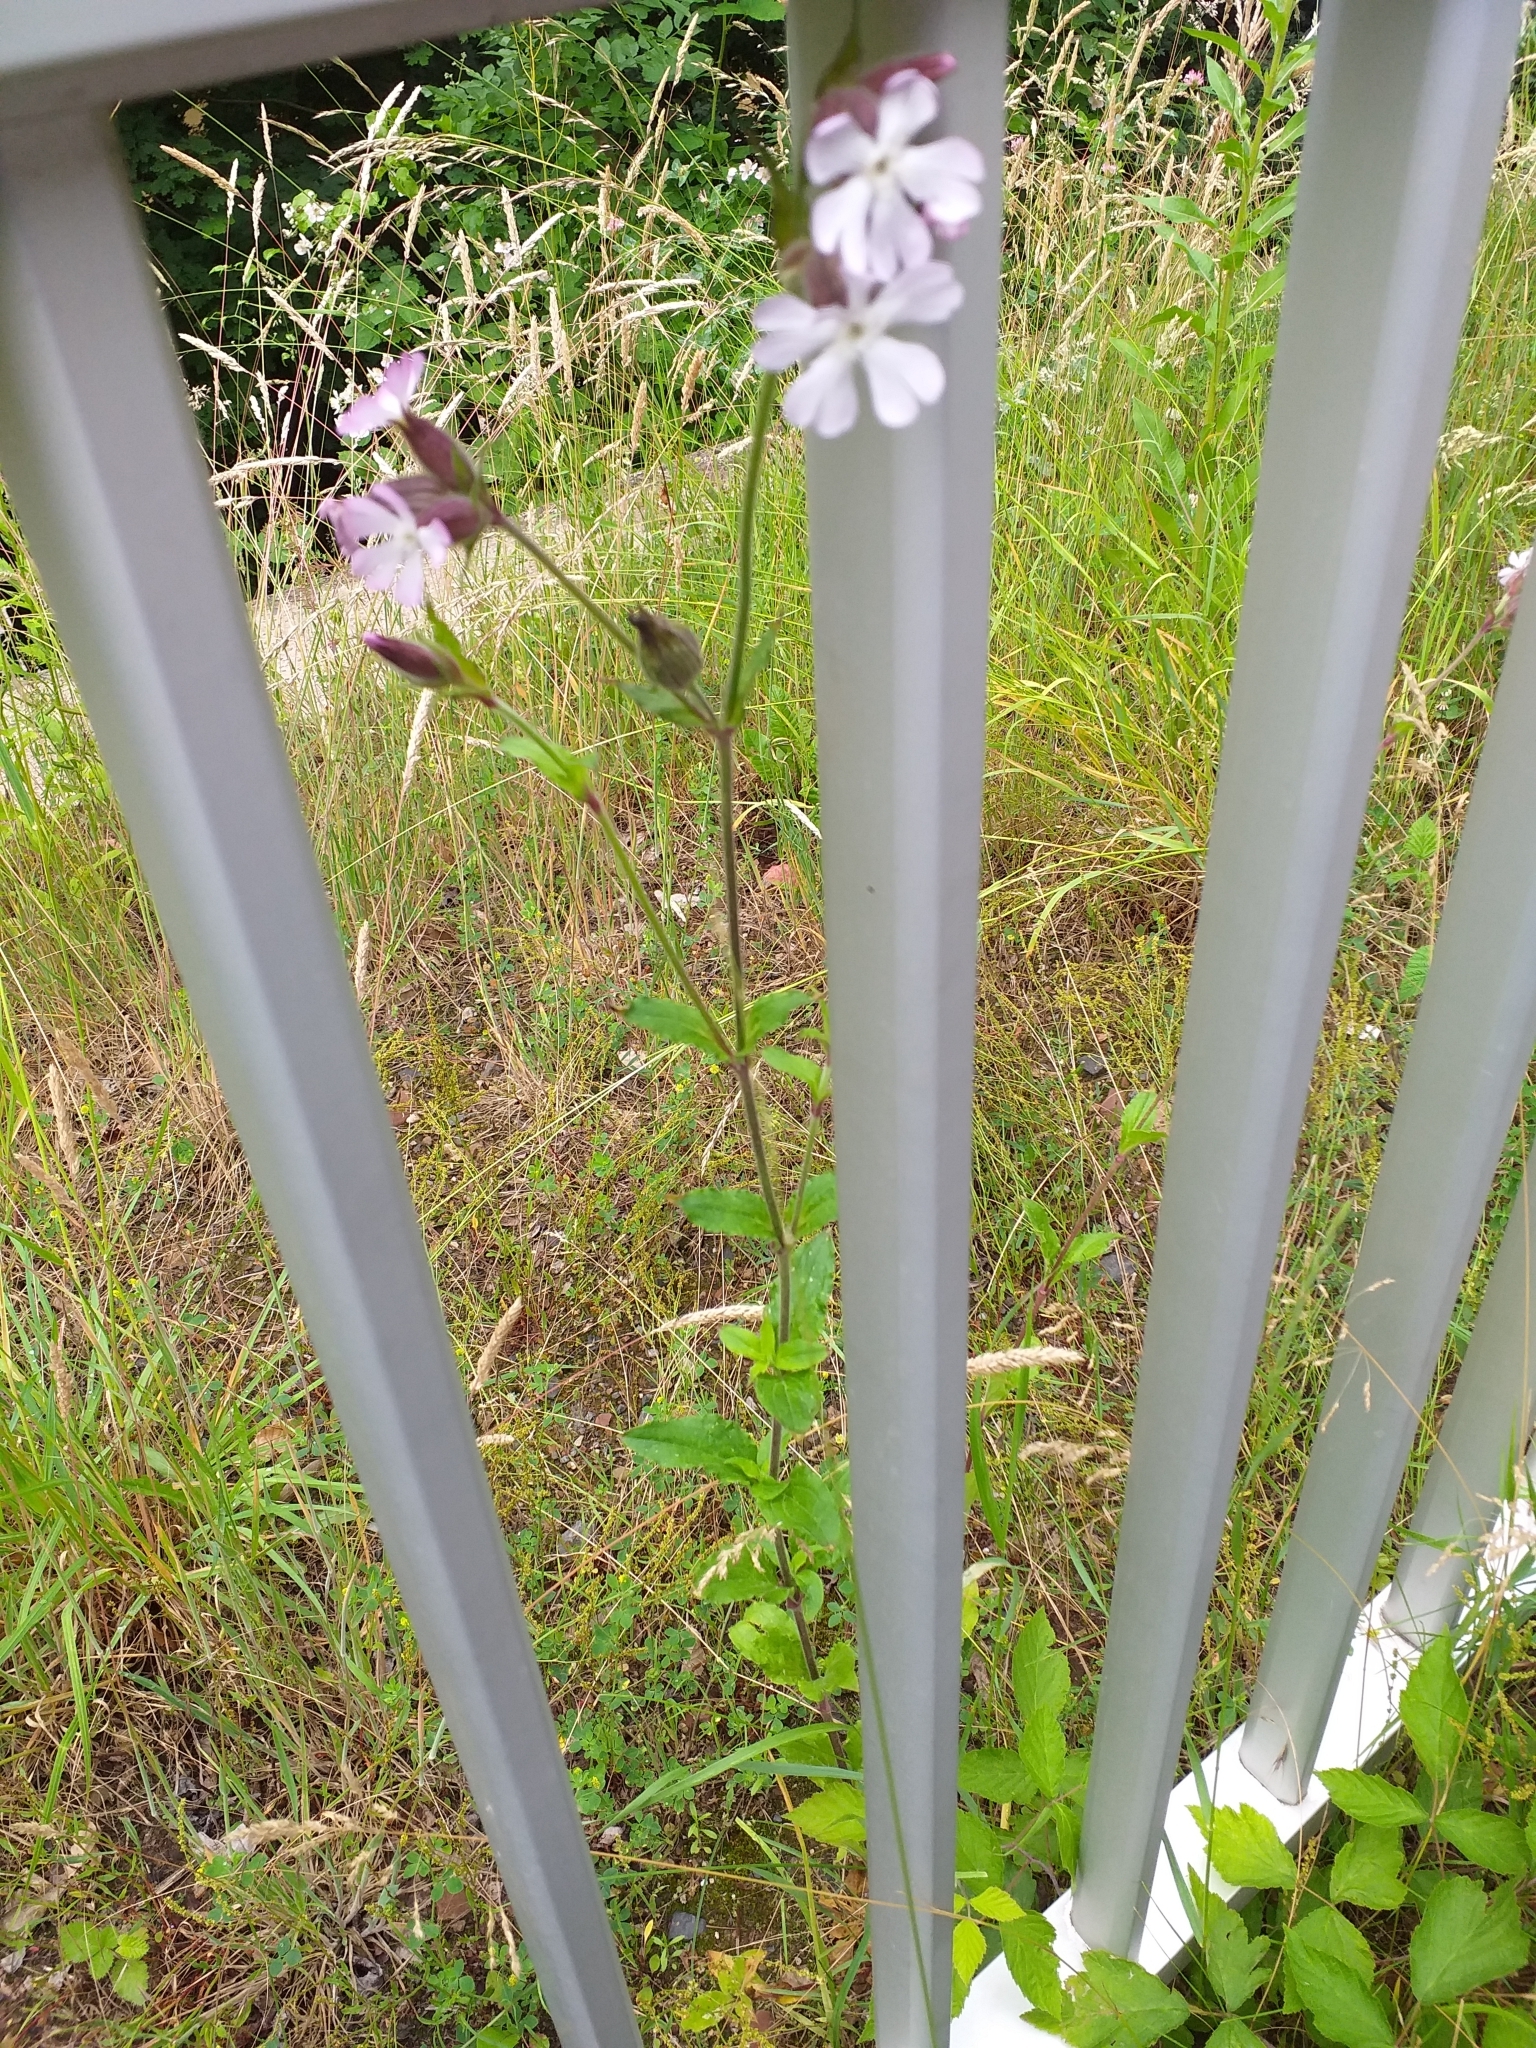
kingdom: Plantae
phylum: Tracheophyta
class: Magnoliopsida
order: Caryophyllales
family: Caryophyllaceae
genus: Silene
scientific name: Silene dioica
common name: Red campion
